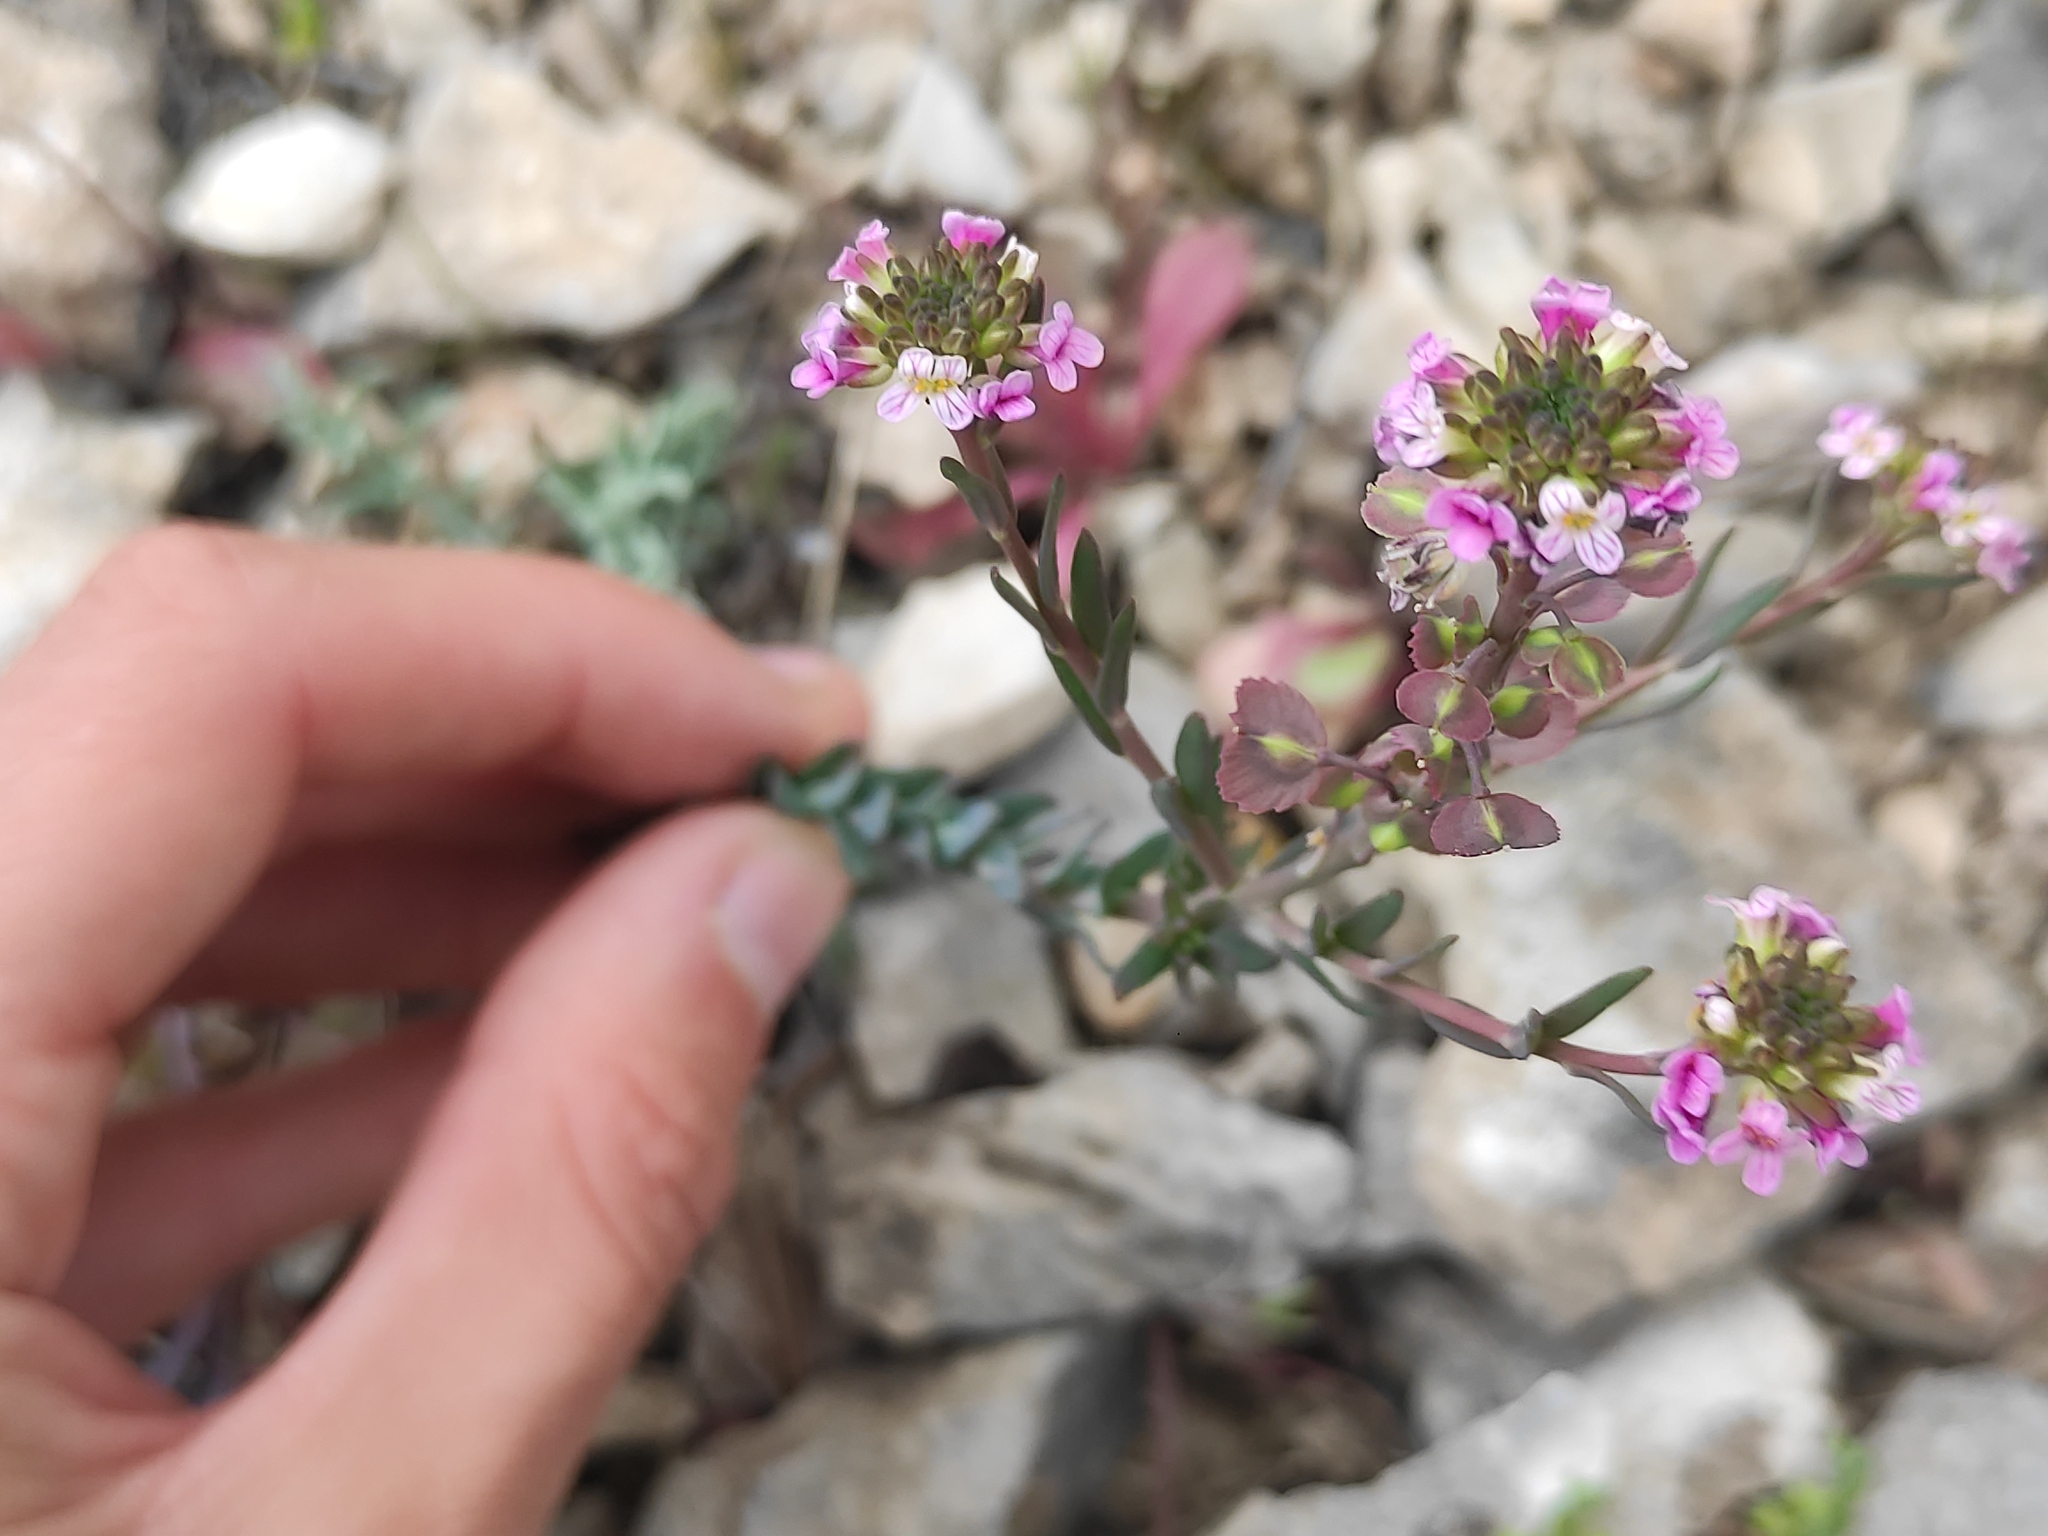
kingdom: Plantae
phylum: Tracheophyta
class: Magnoliopsida
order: Brassicales
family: Brassicaceae
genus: Aethionema
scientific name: Aethionema saxatile
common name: Burnt candytuft
